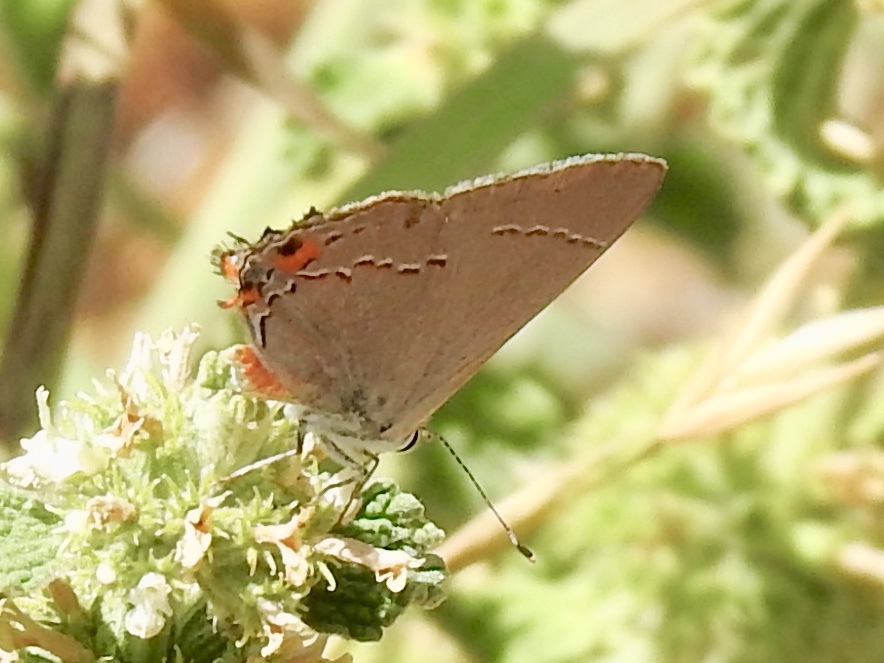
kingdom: Animalia
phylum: Arthropoda
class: Insecta
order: Lepidoptera
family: Lycaenidae
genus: Strymon
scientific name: Strymon melinus
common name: Gray hairstreak
